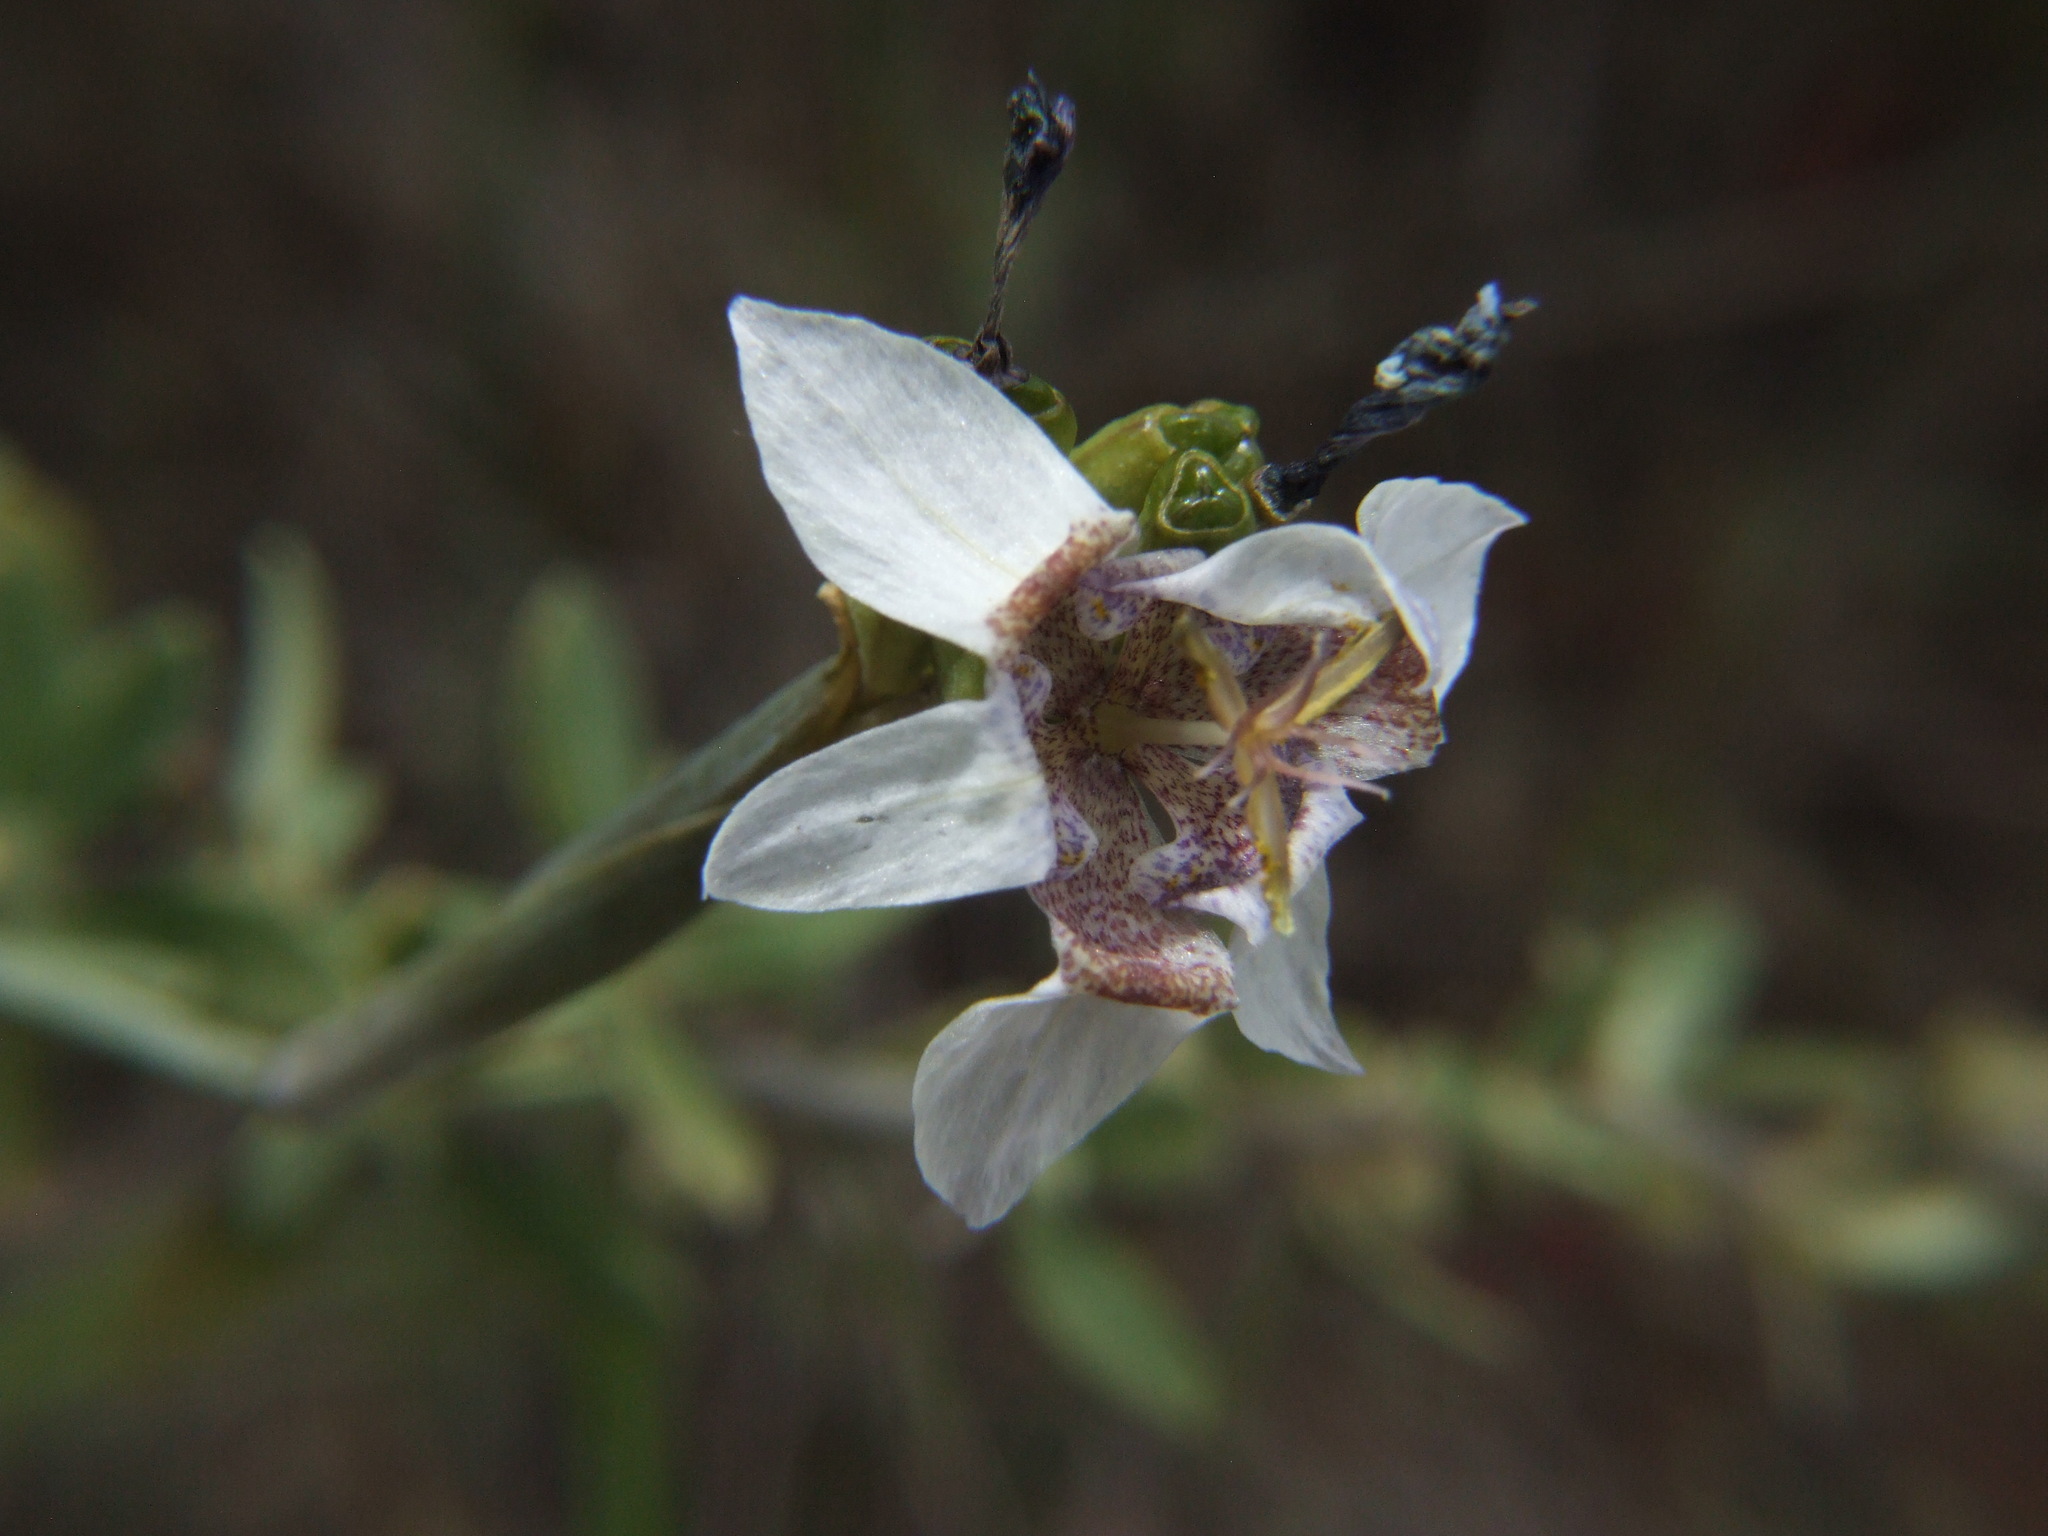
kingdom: Plantae
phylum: Tracheophyta
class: Liliopsida
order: Asparagales
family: Iridaceae
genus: Tigridia
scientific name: Tigridia arequipensis
